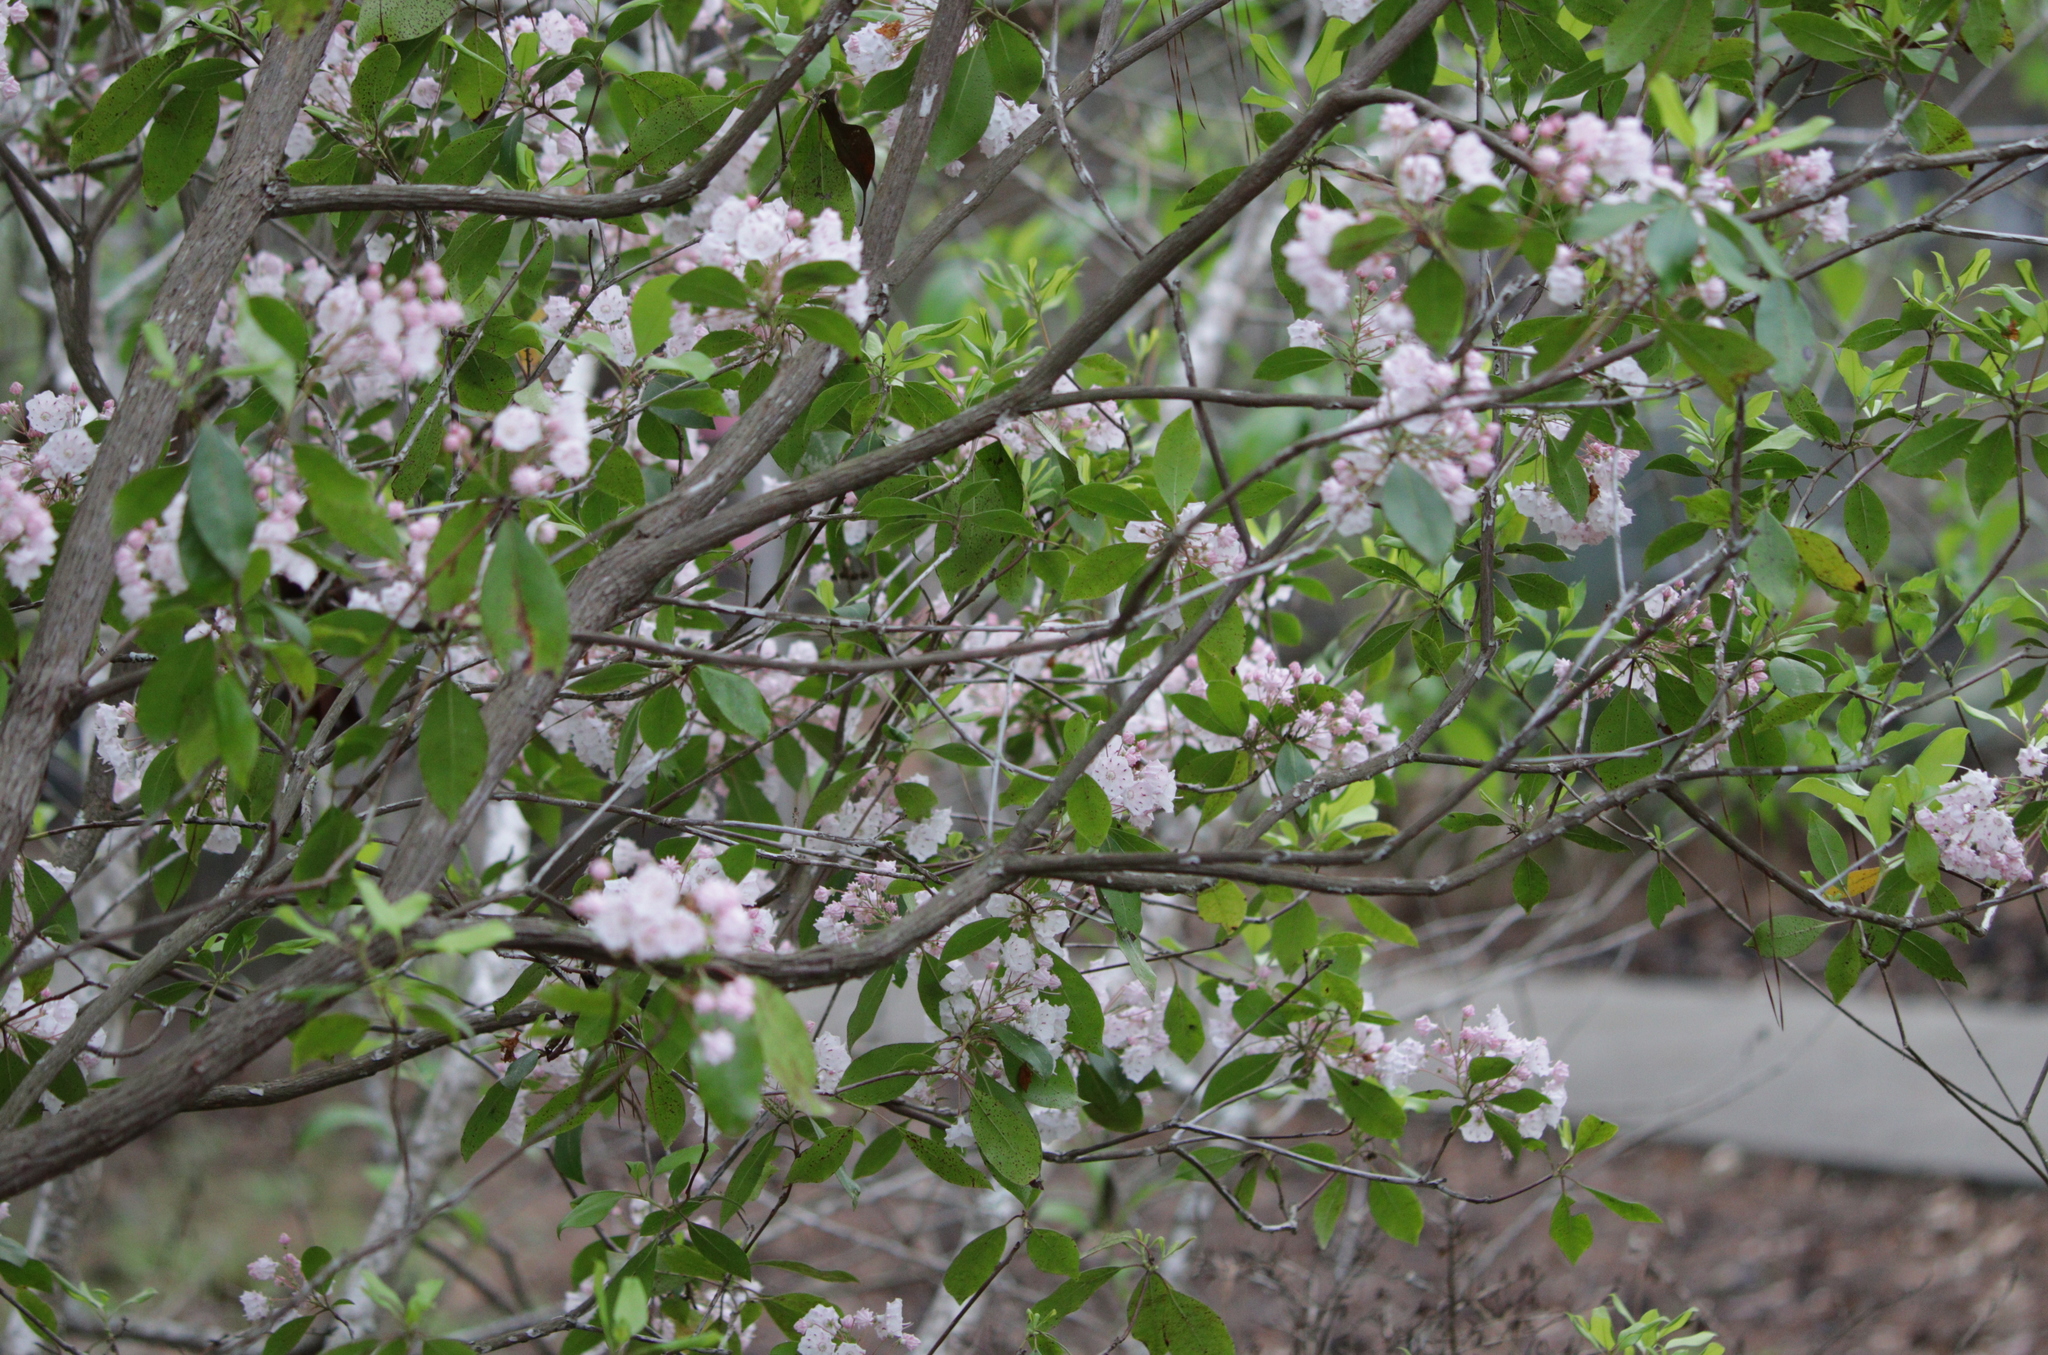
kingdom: Plantae
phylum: Tracheophyta
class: Magnoliopsida
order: Ericales
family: Ericaceae
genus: Kalmia
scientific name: Kalmia latifolia
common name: Mountain-laurel
